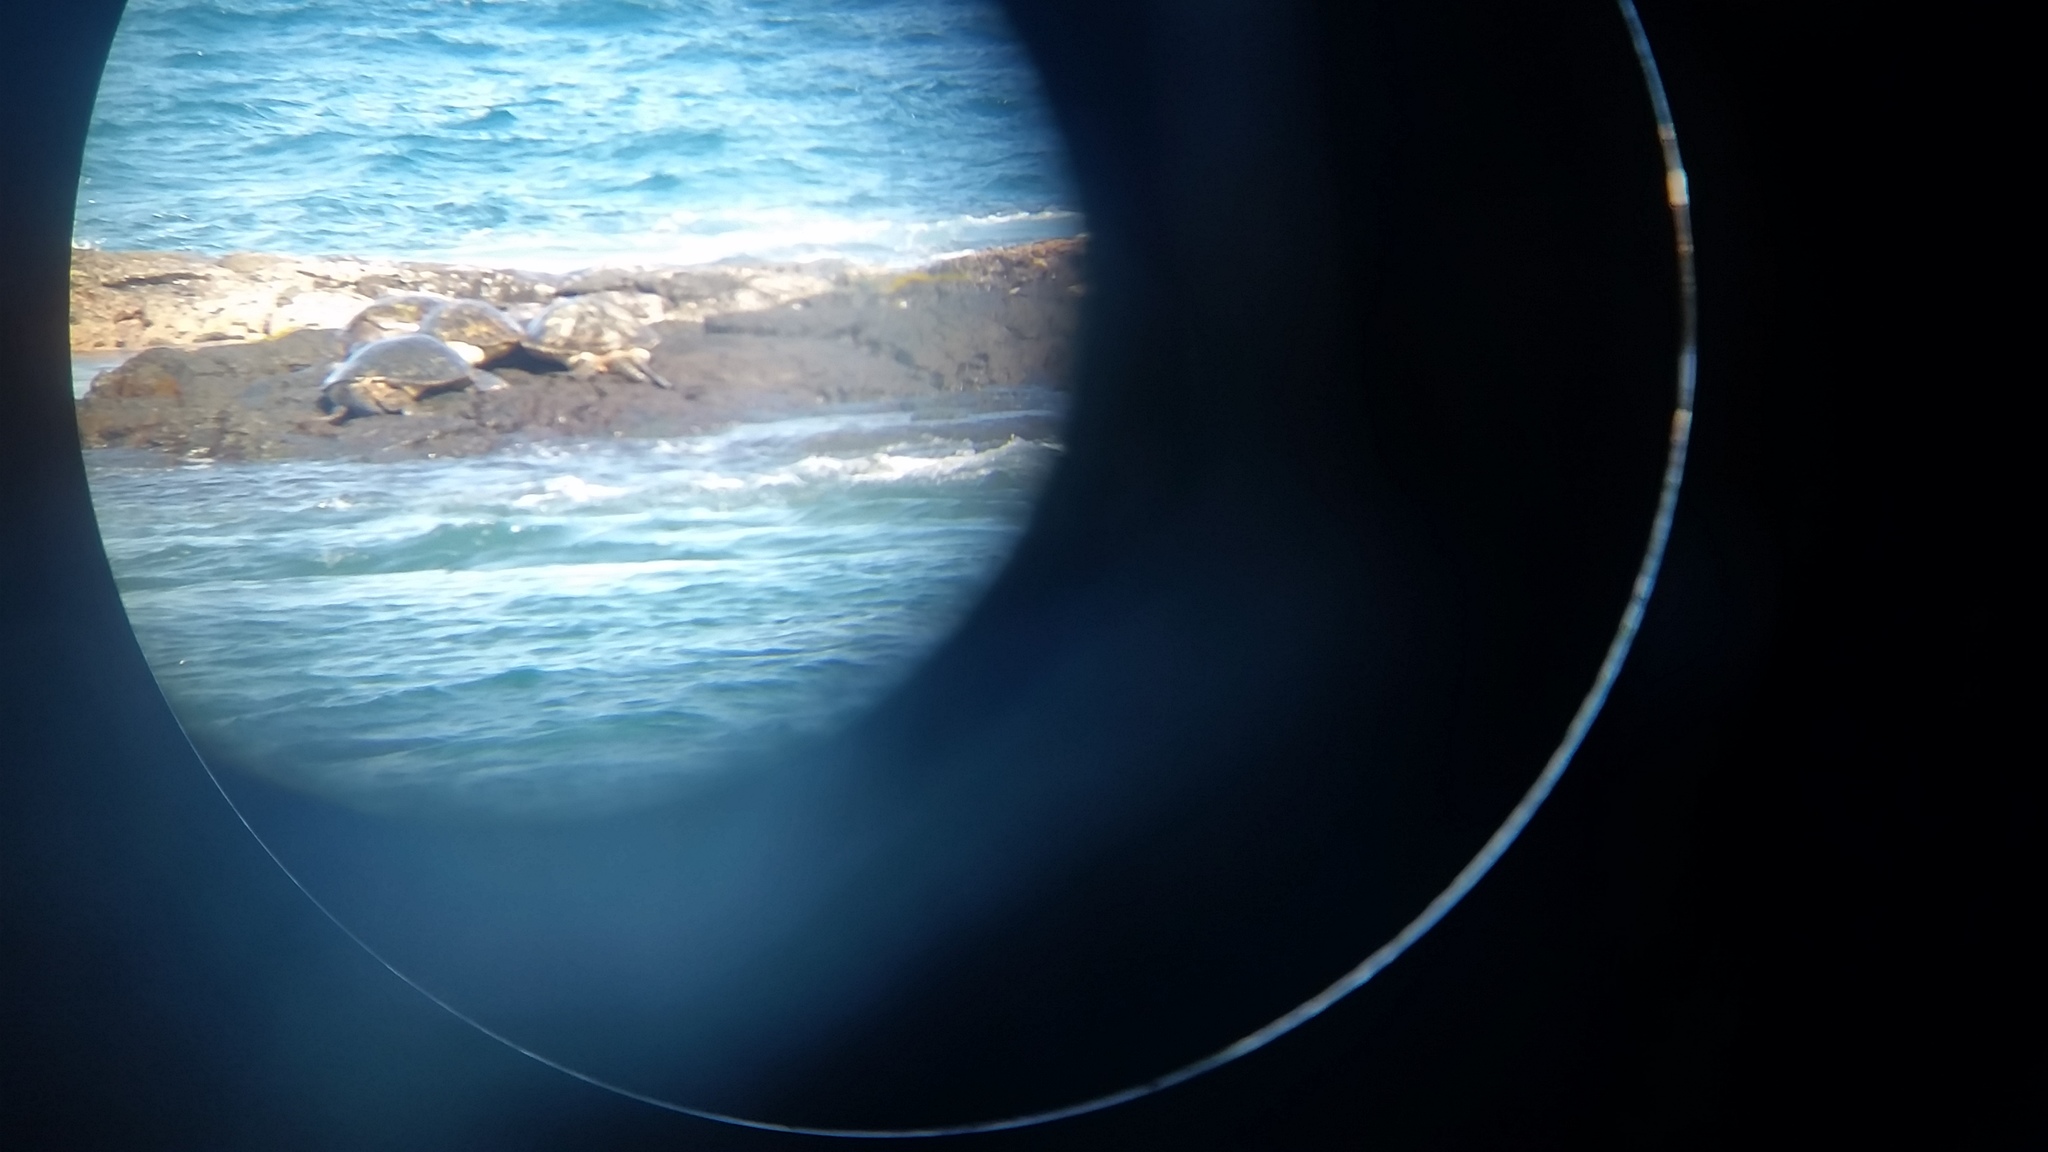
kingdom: Animalia
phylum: Chordata
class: Testudines
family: Cheloniidae
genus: Chelonia
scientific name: Chelonia mydas
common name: Green turtle
